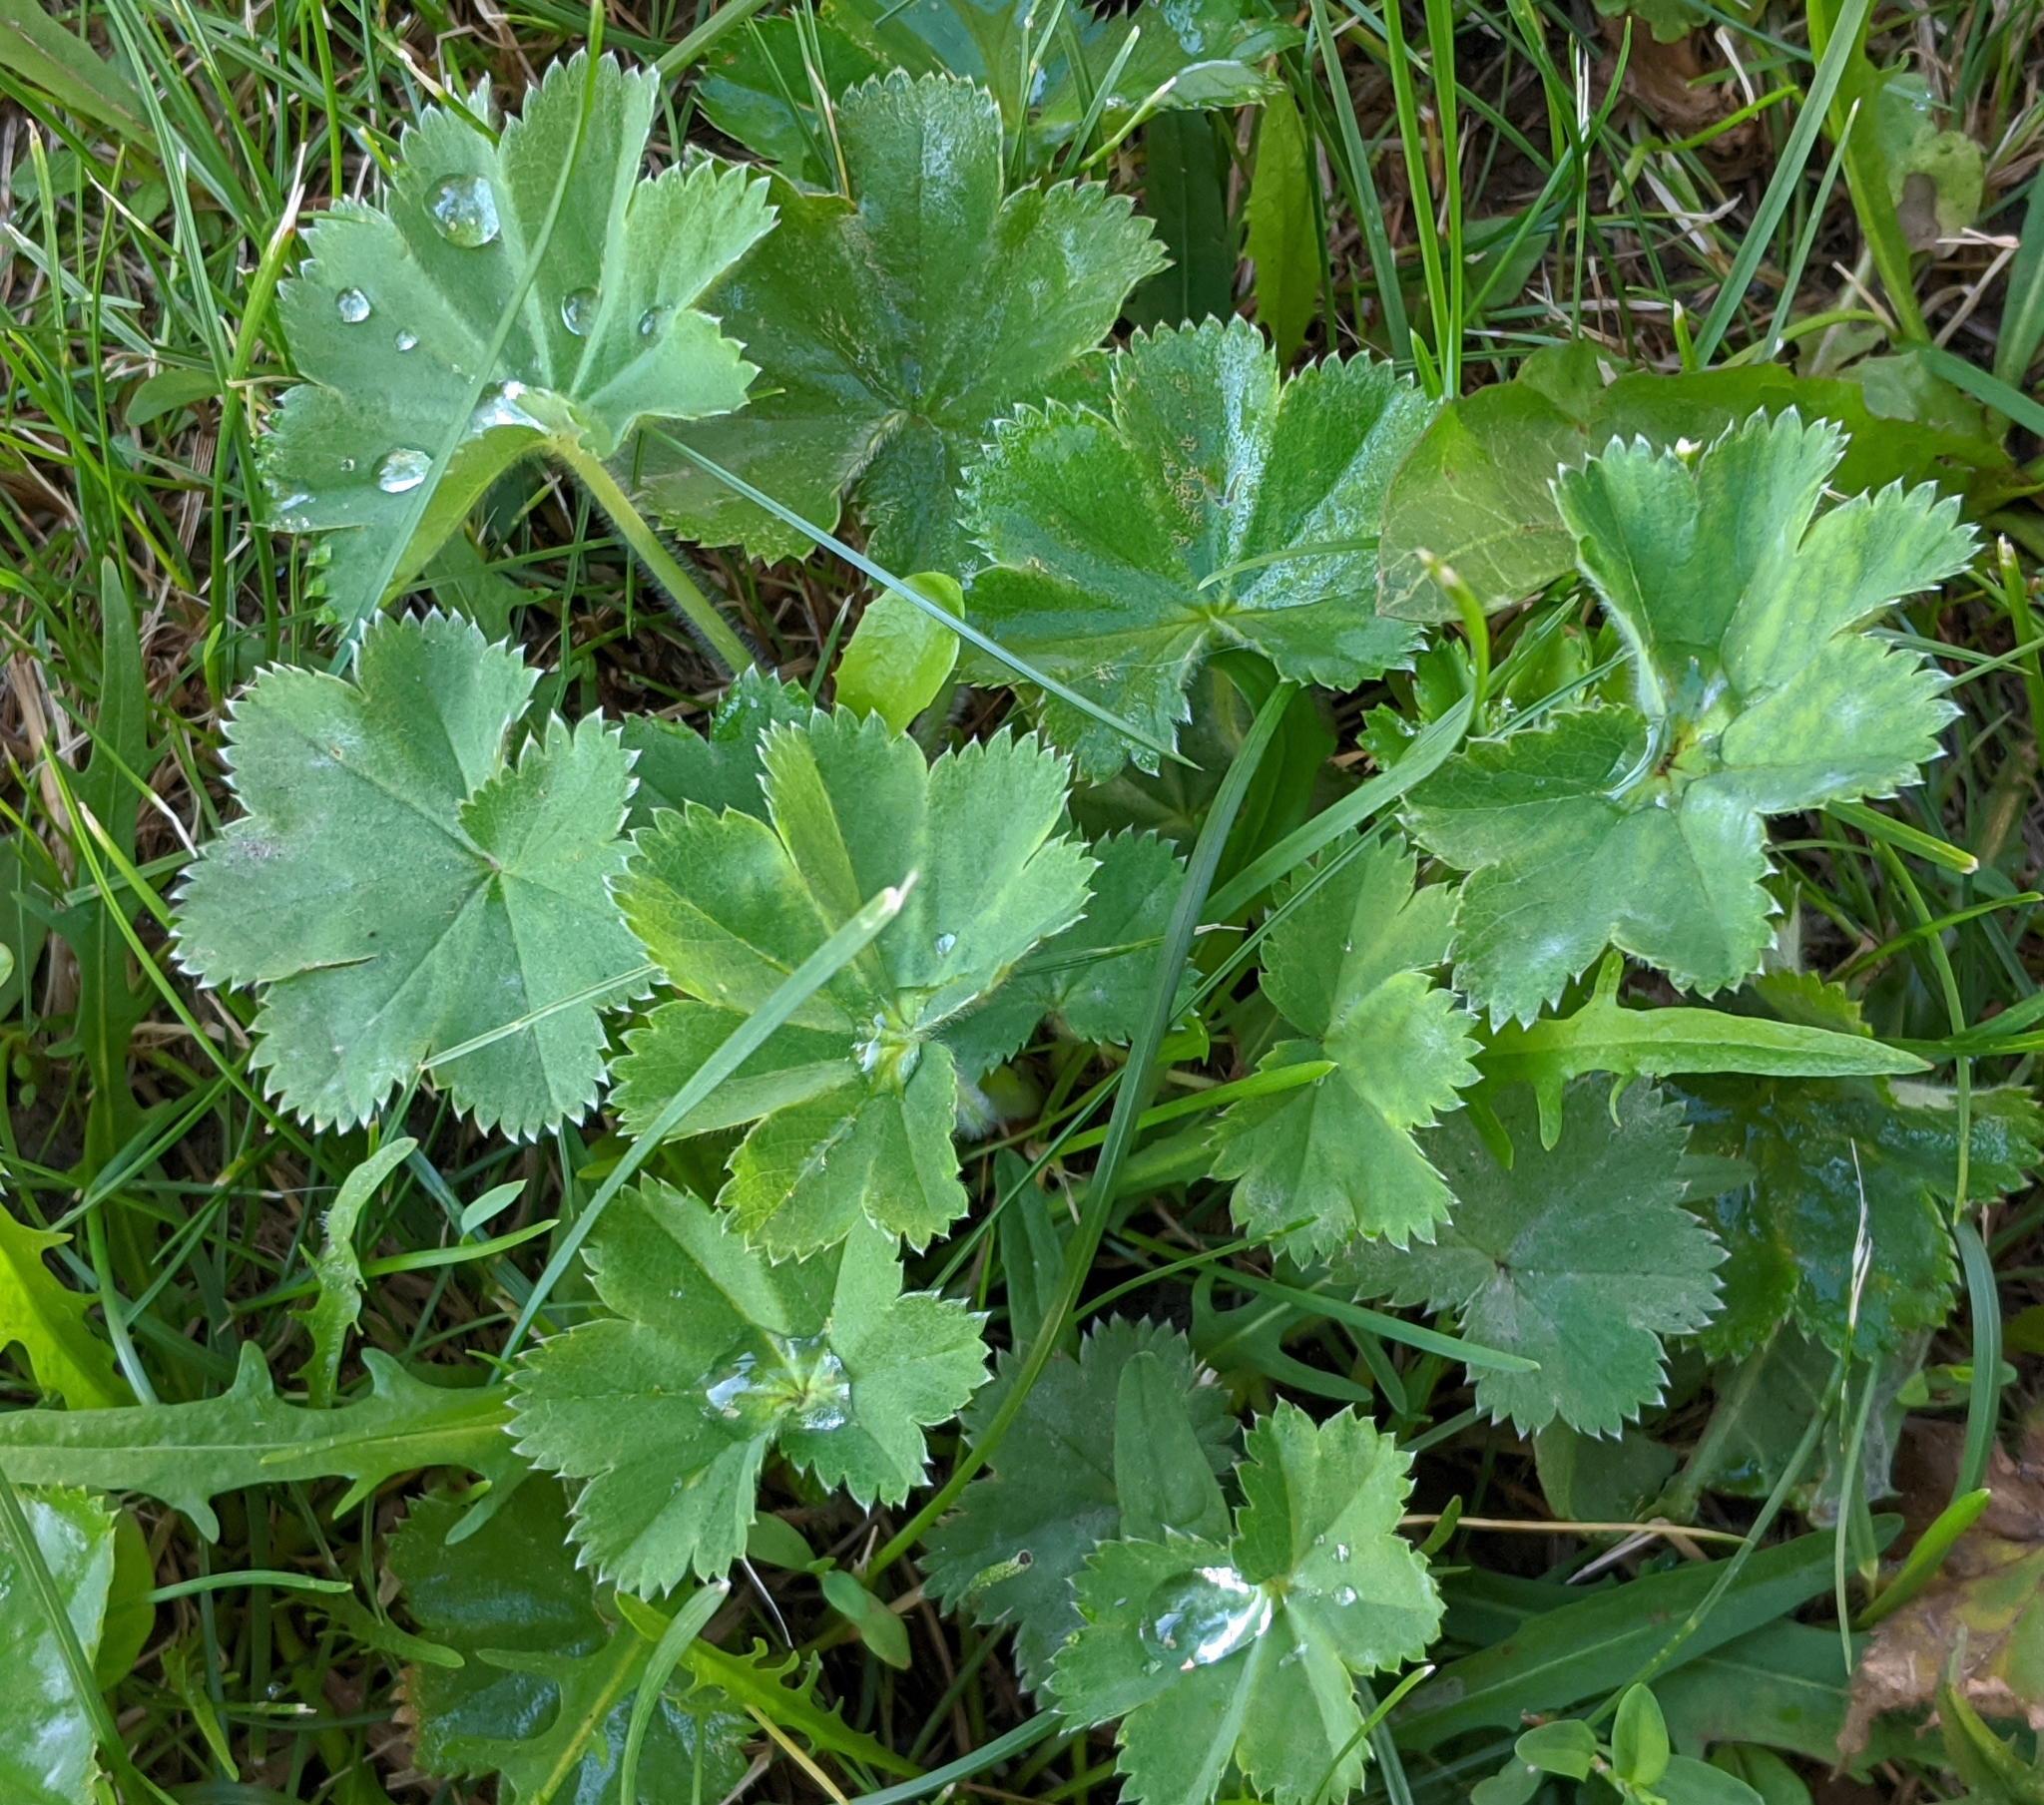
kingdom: Plantae
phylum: Tracheophyta
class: Magnoliopsida
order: Rosales
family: Rosaceae
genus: Alchemilla
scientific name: Alchemilla
